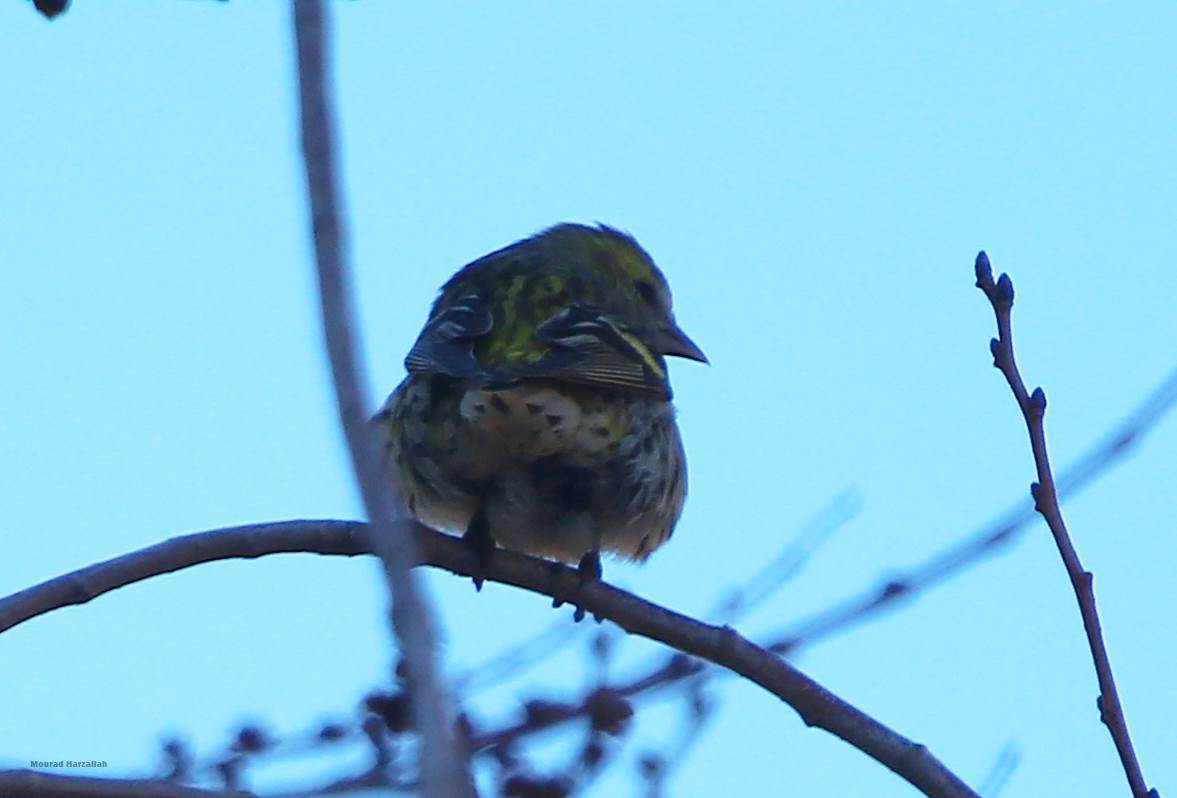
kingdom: Animalia
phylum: Chordata
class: Aves
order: Passeriformes
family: Fringillidae
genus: Spinus
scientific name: Spinus spinus
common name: Eurasian siskin
